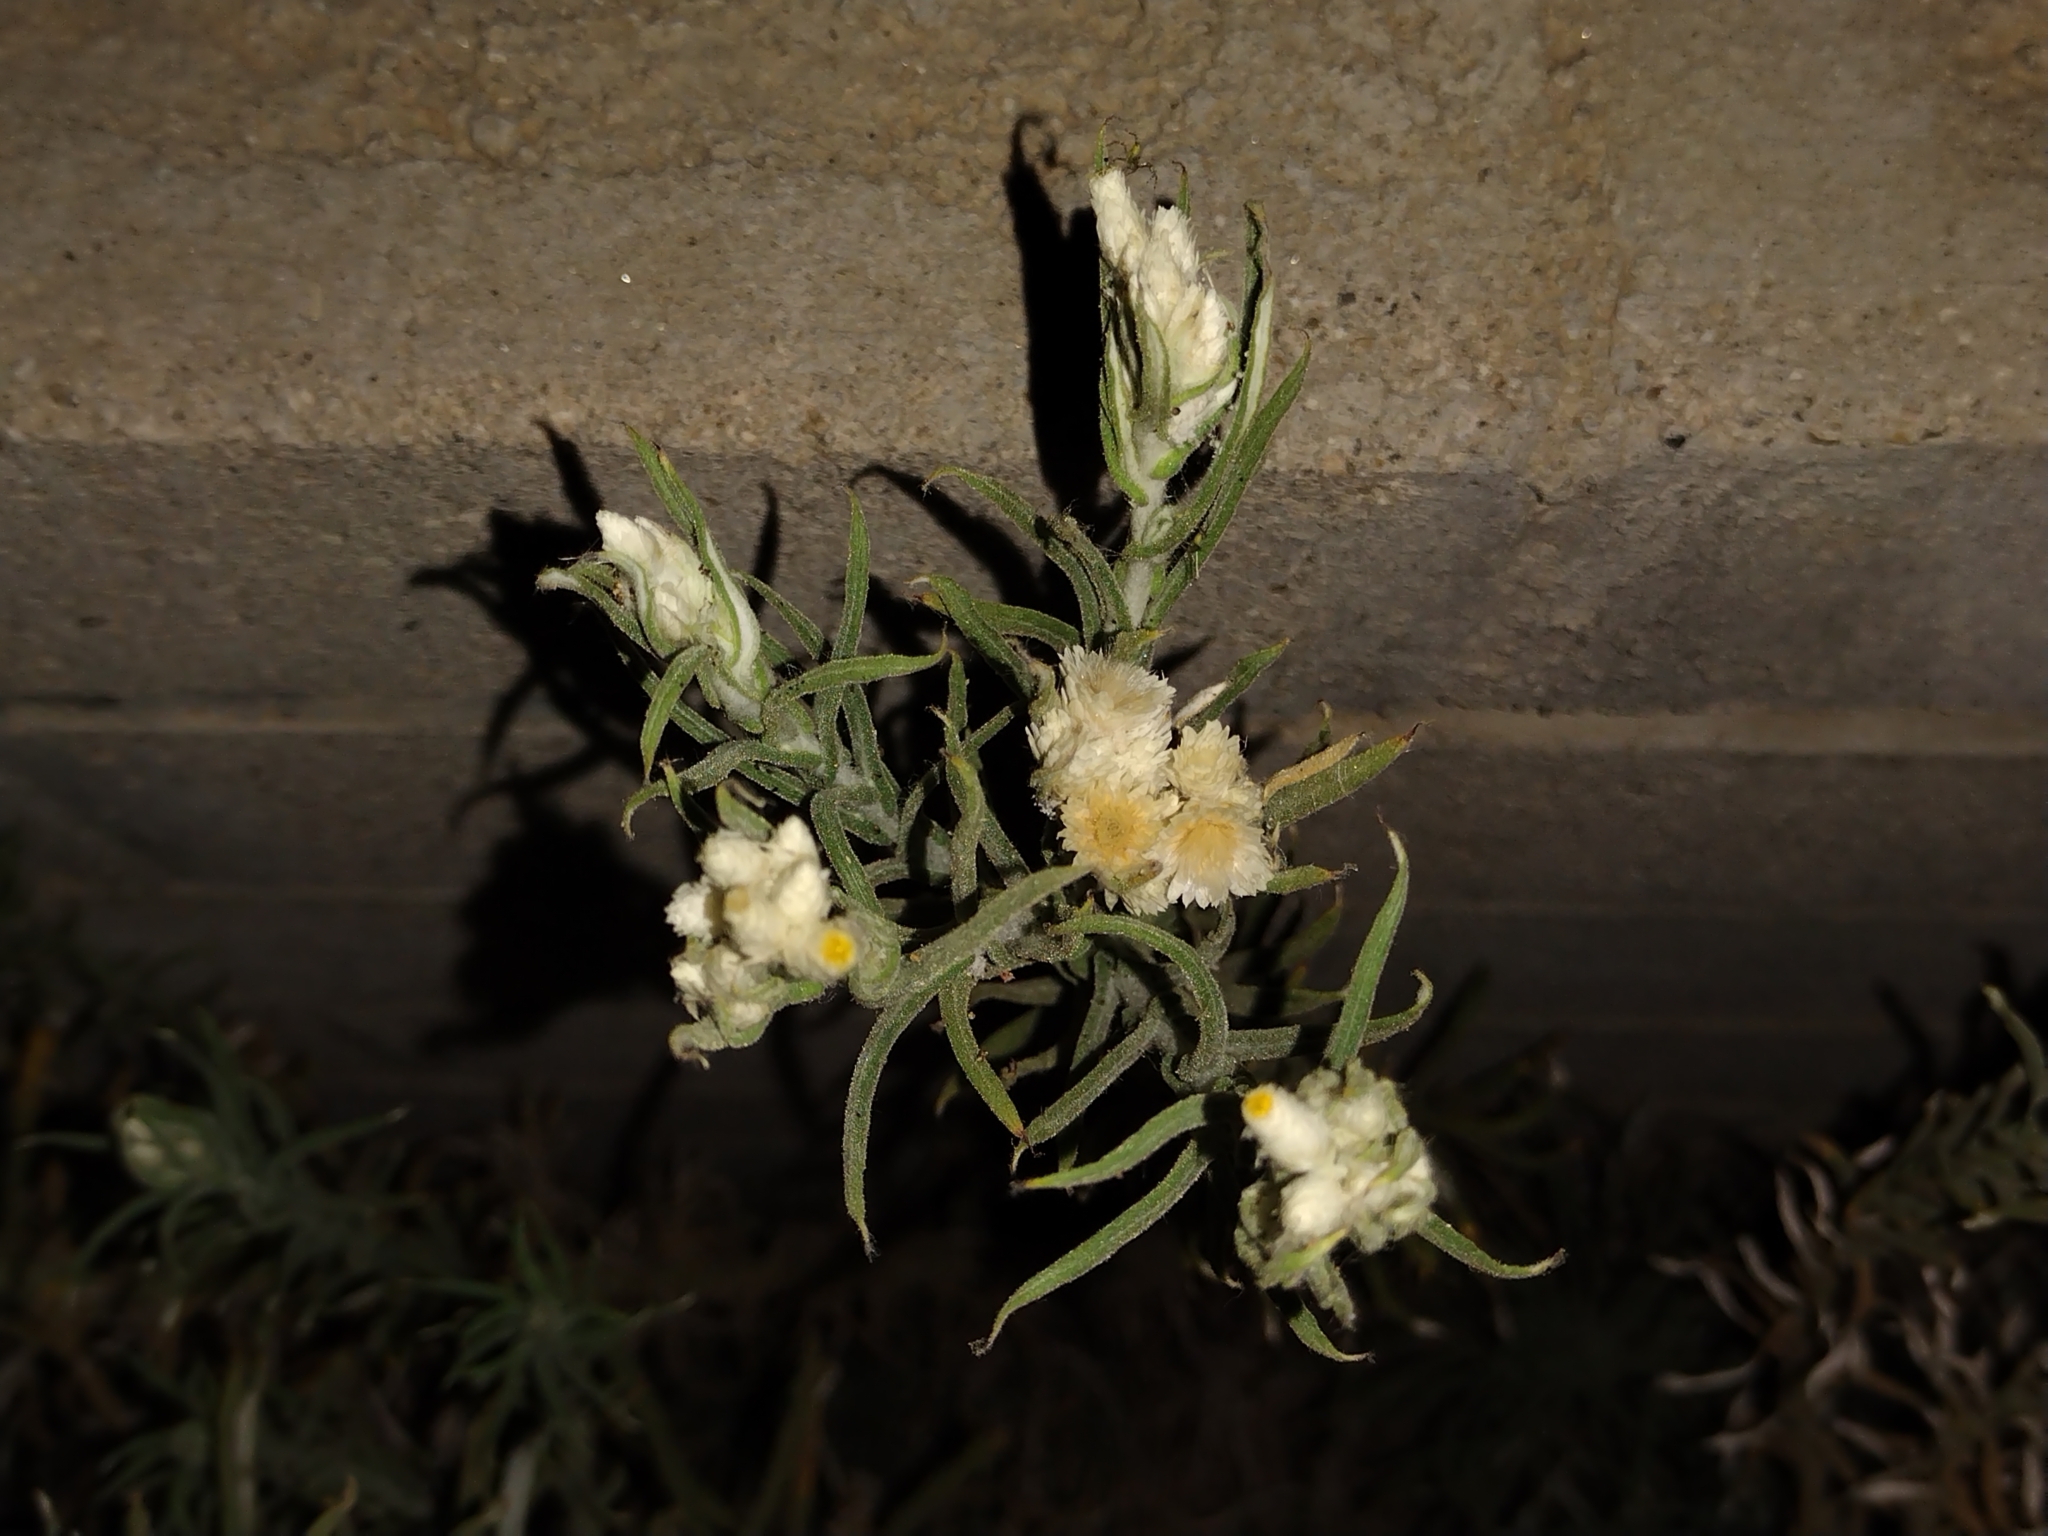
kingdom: Plantae
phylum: Tracheophyta
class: Magnoliopsida
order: Asterales
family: Asteraceae
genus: Pseudognaphalium
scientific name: Pseudognaphalium leucocephalum
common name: White cudweed
